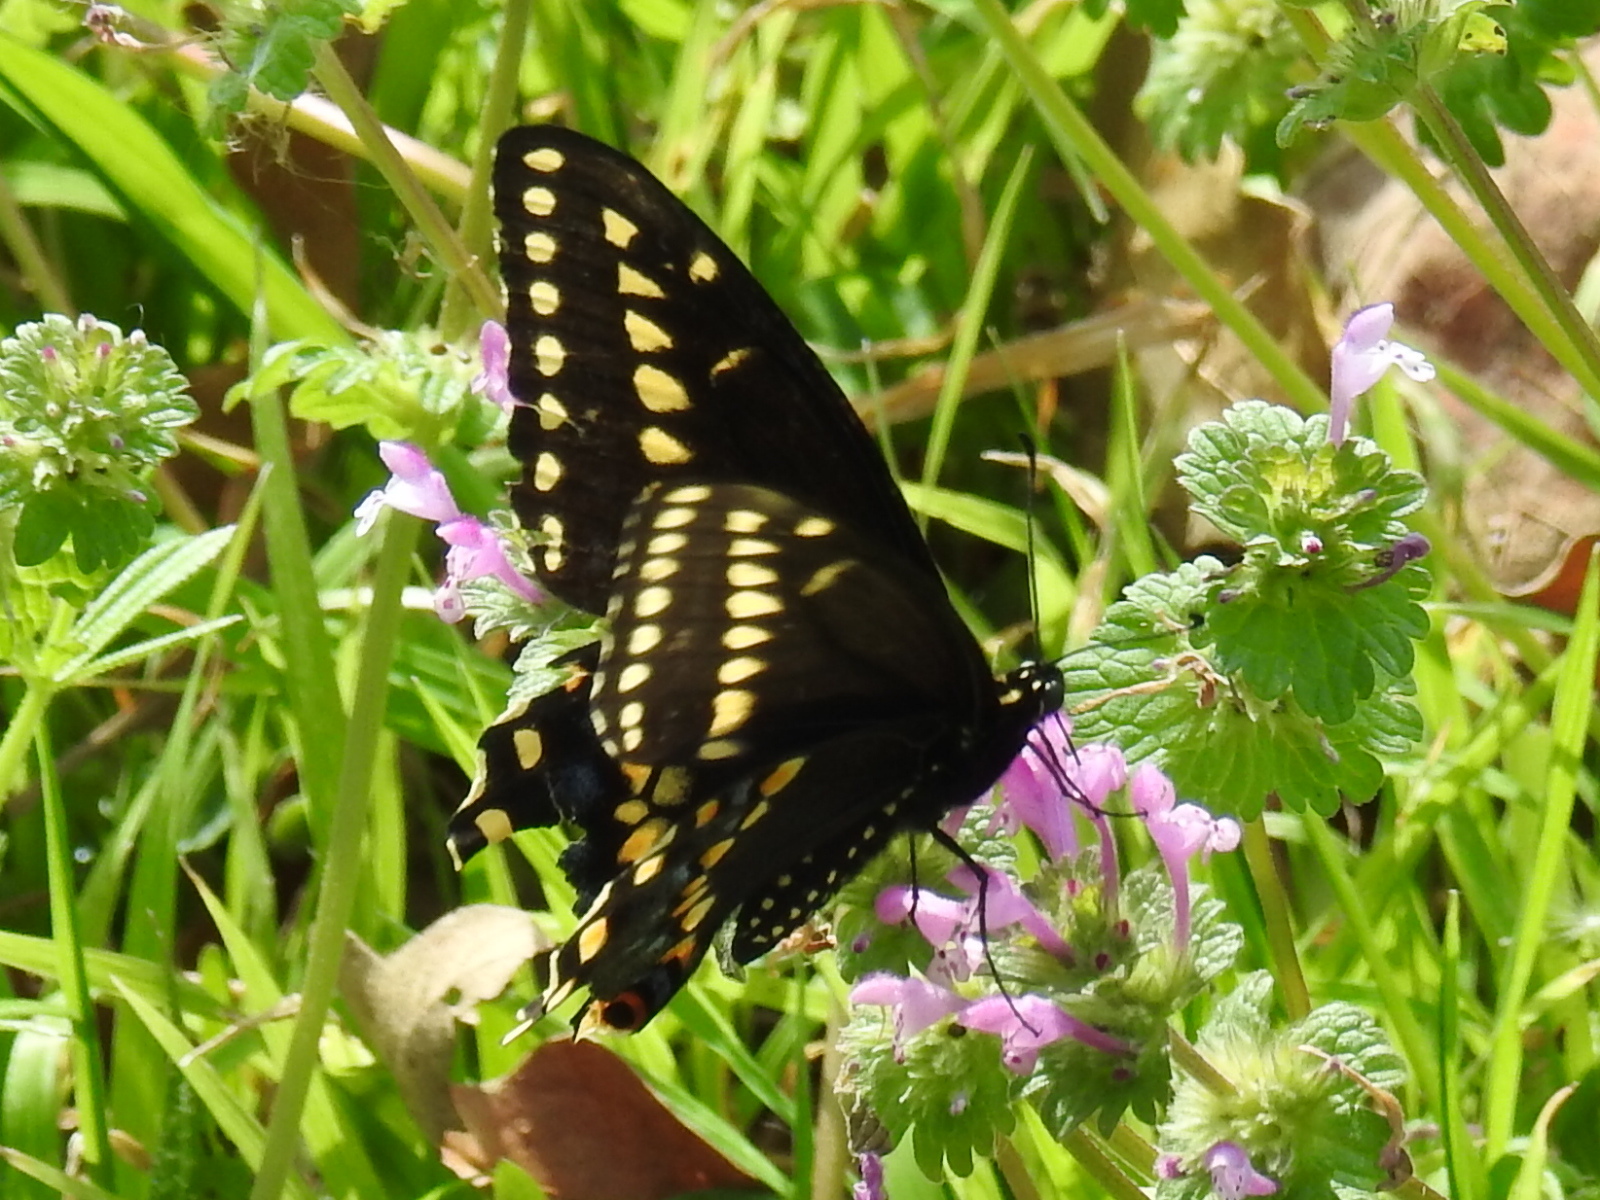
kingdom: Animalia
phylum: Arthropoda
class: Insecta
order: Lepidoptera
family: Papilionidae
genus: Papilio
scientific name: Papilio polyxenes
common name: Black swallowtail
